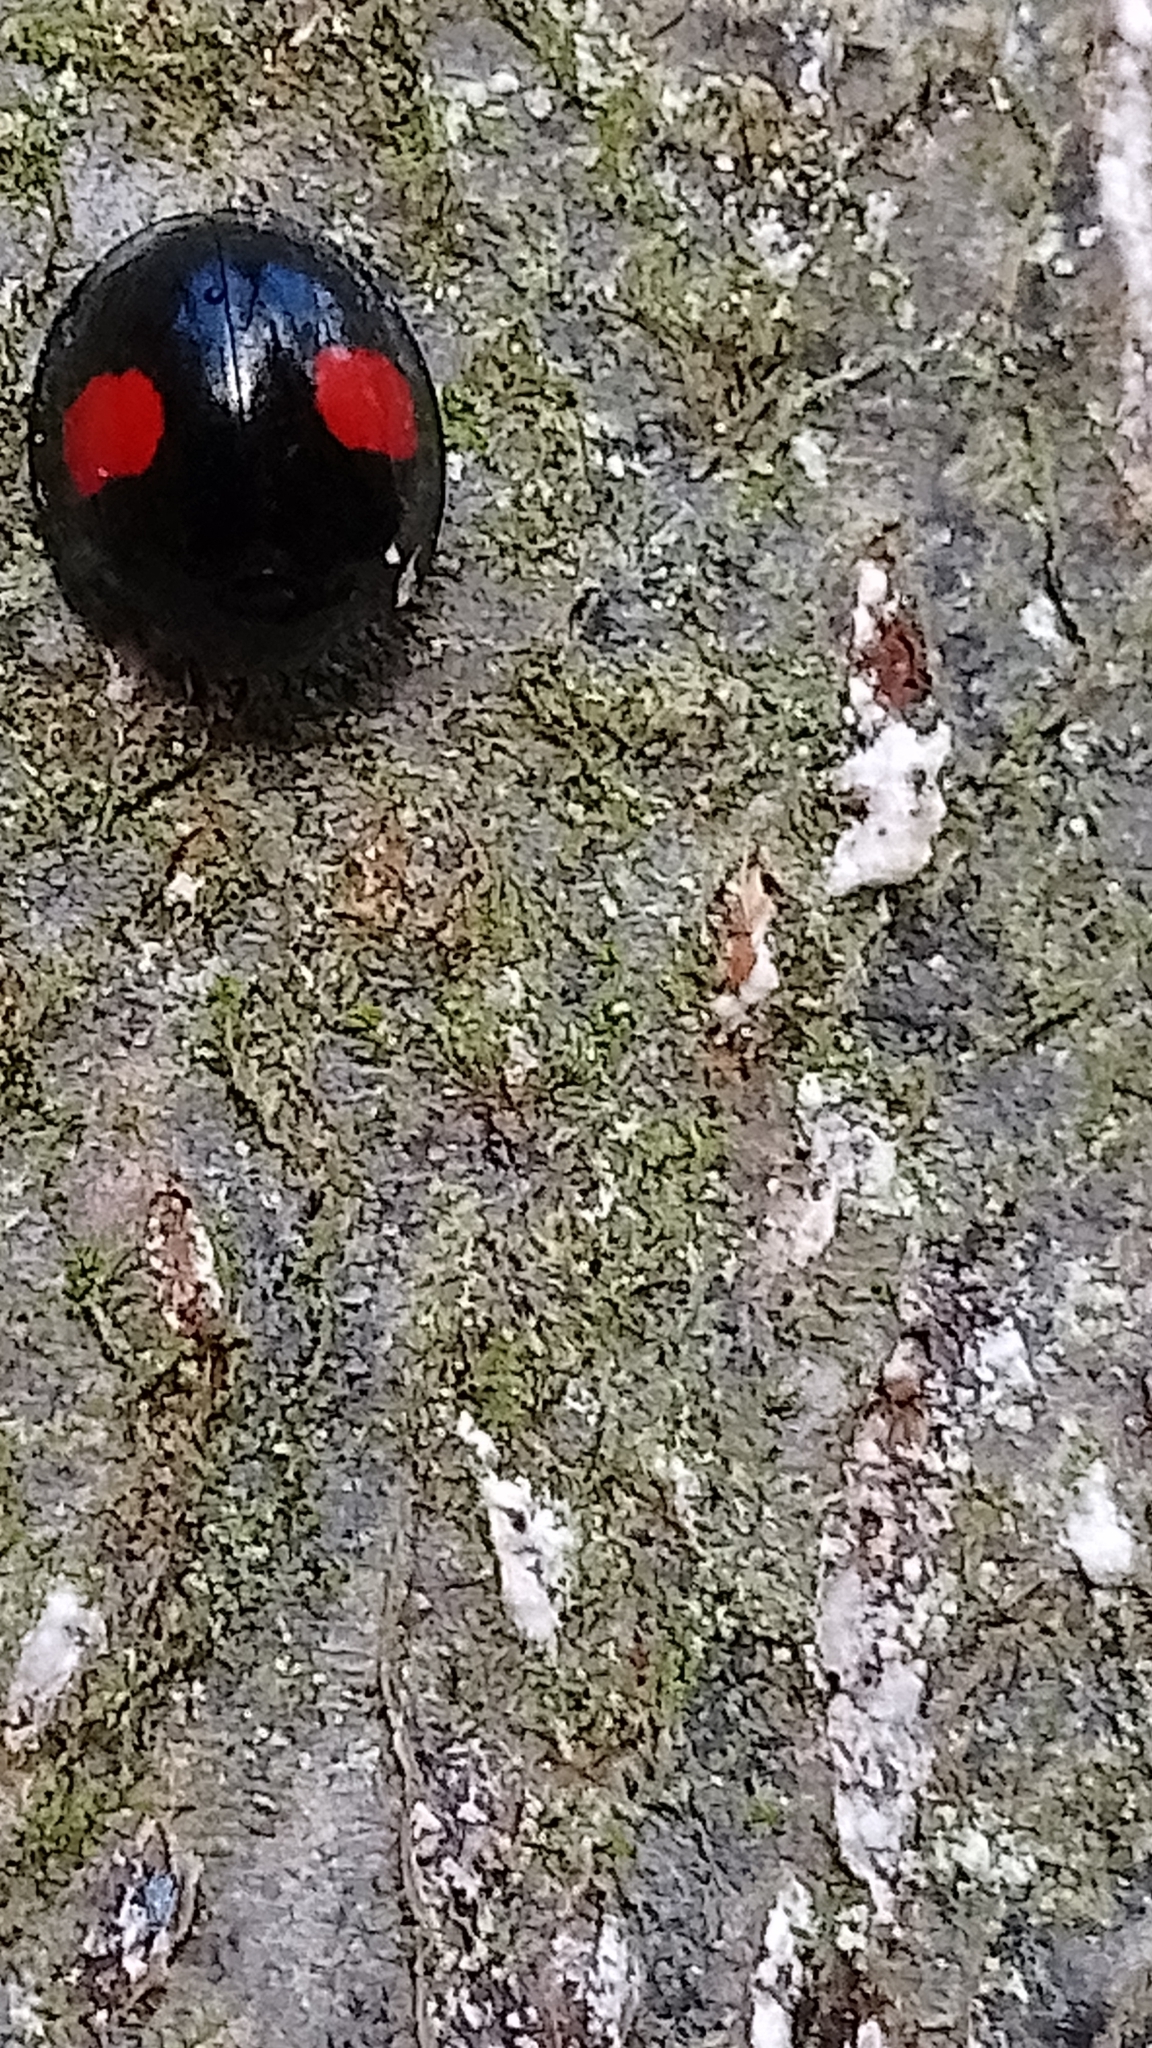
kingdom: Animalia
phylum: Arthropoda
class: Insecta
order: Coleoptera
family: Coccinellidae
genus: Chilocorus
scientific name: Chilocorus renipustulatus
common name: Kidney-spot ladybird
